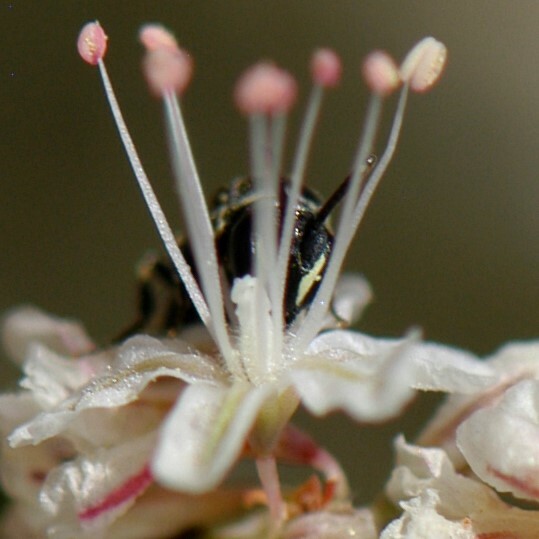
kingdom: Animalia
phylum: Arthropoda
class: Insecta
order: Hymenoptera
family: Colletidae
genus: Hylaeus
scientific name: Hylaeus
